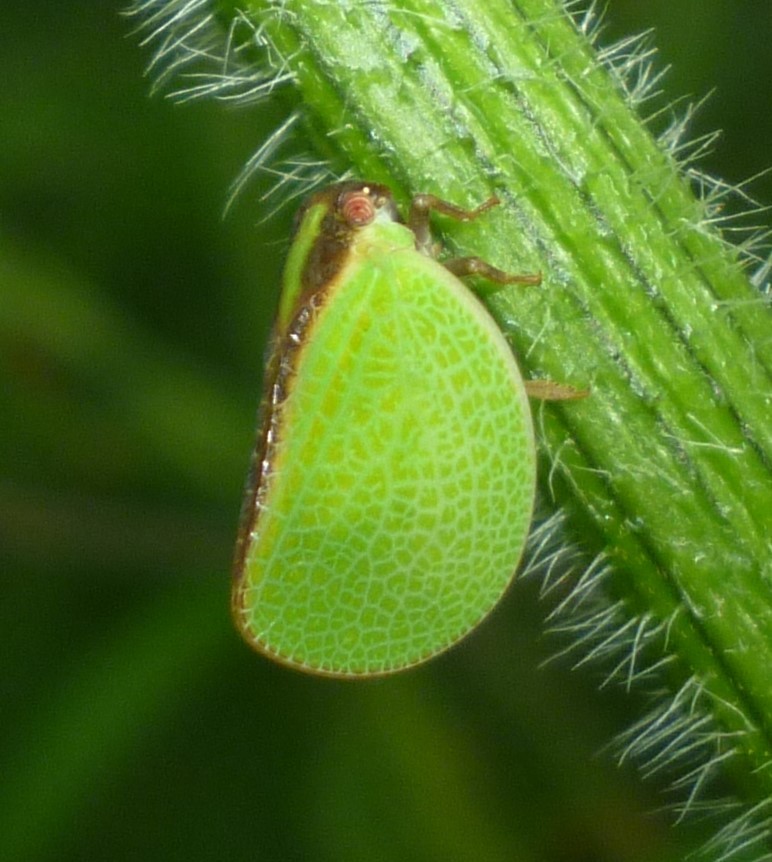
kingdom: Animalia
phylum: Arthropoda
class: Insecta
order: Hemiptera
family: Acanaloniidae
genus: Acanalonia
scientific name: Acanalonia bivittata
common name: Two-striped planthopper
